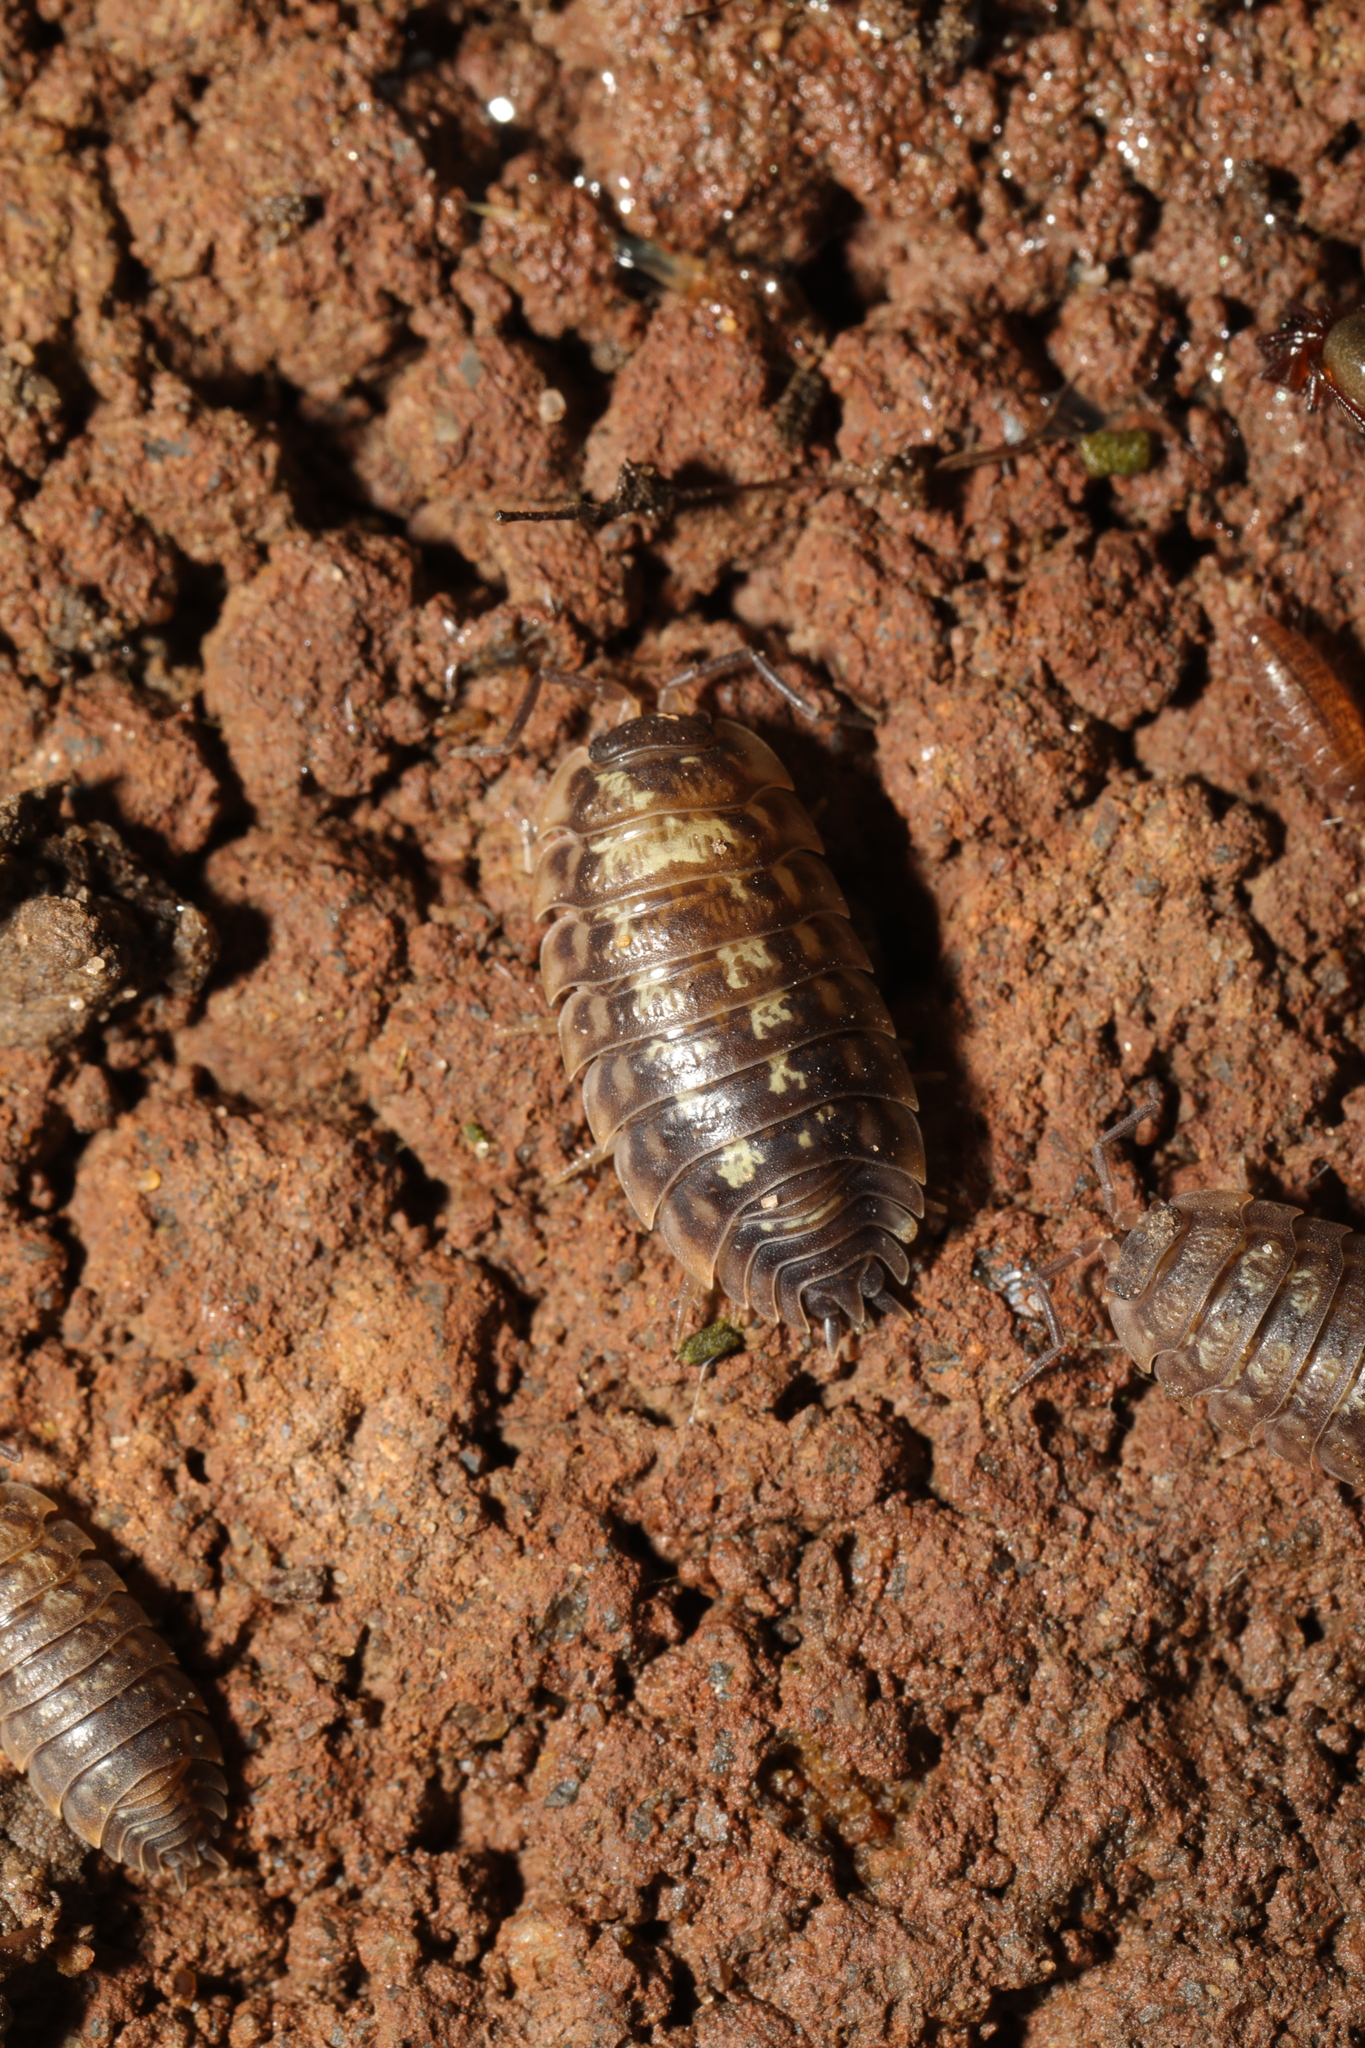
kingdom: Animalia
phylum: Arthropoda
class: Malacostraca
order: Isopoda
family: Oniscidae
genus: Oniscus
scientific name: Oniscus asellus
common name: Common shiny woodlouse
